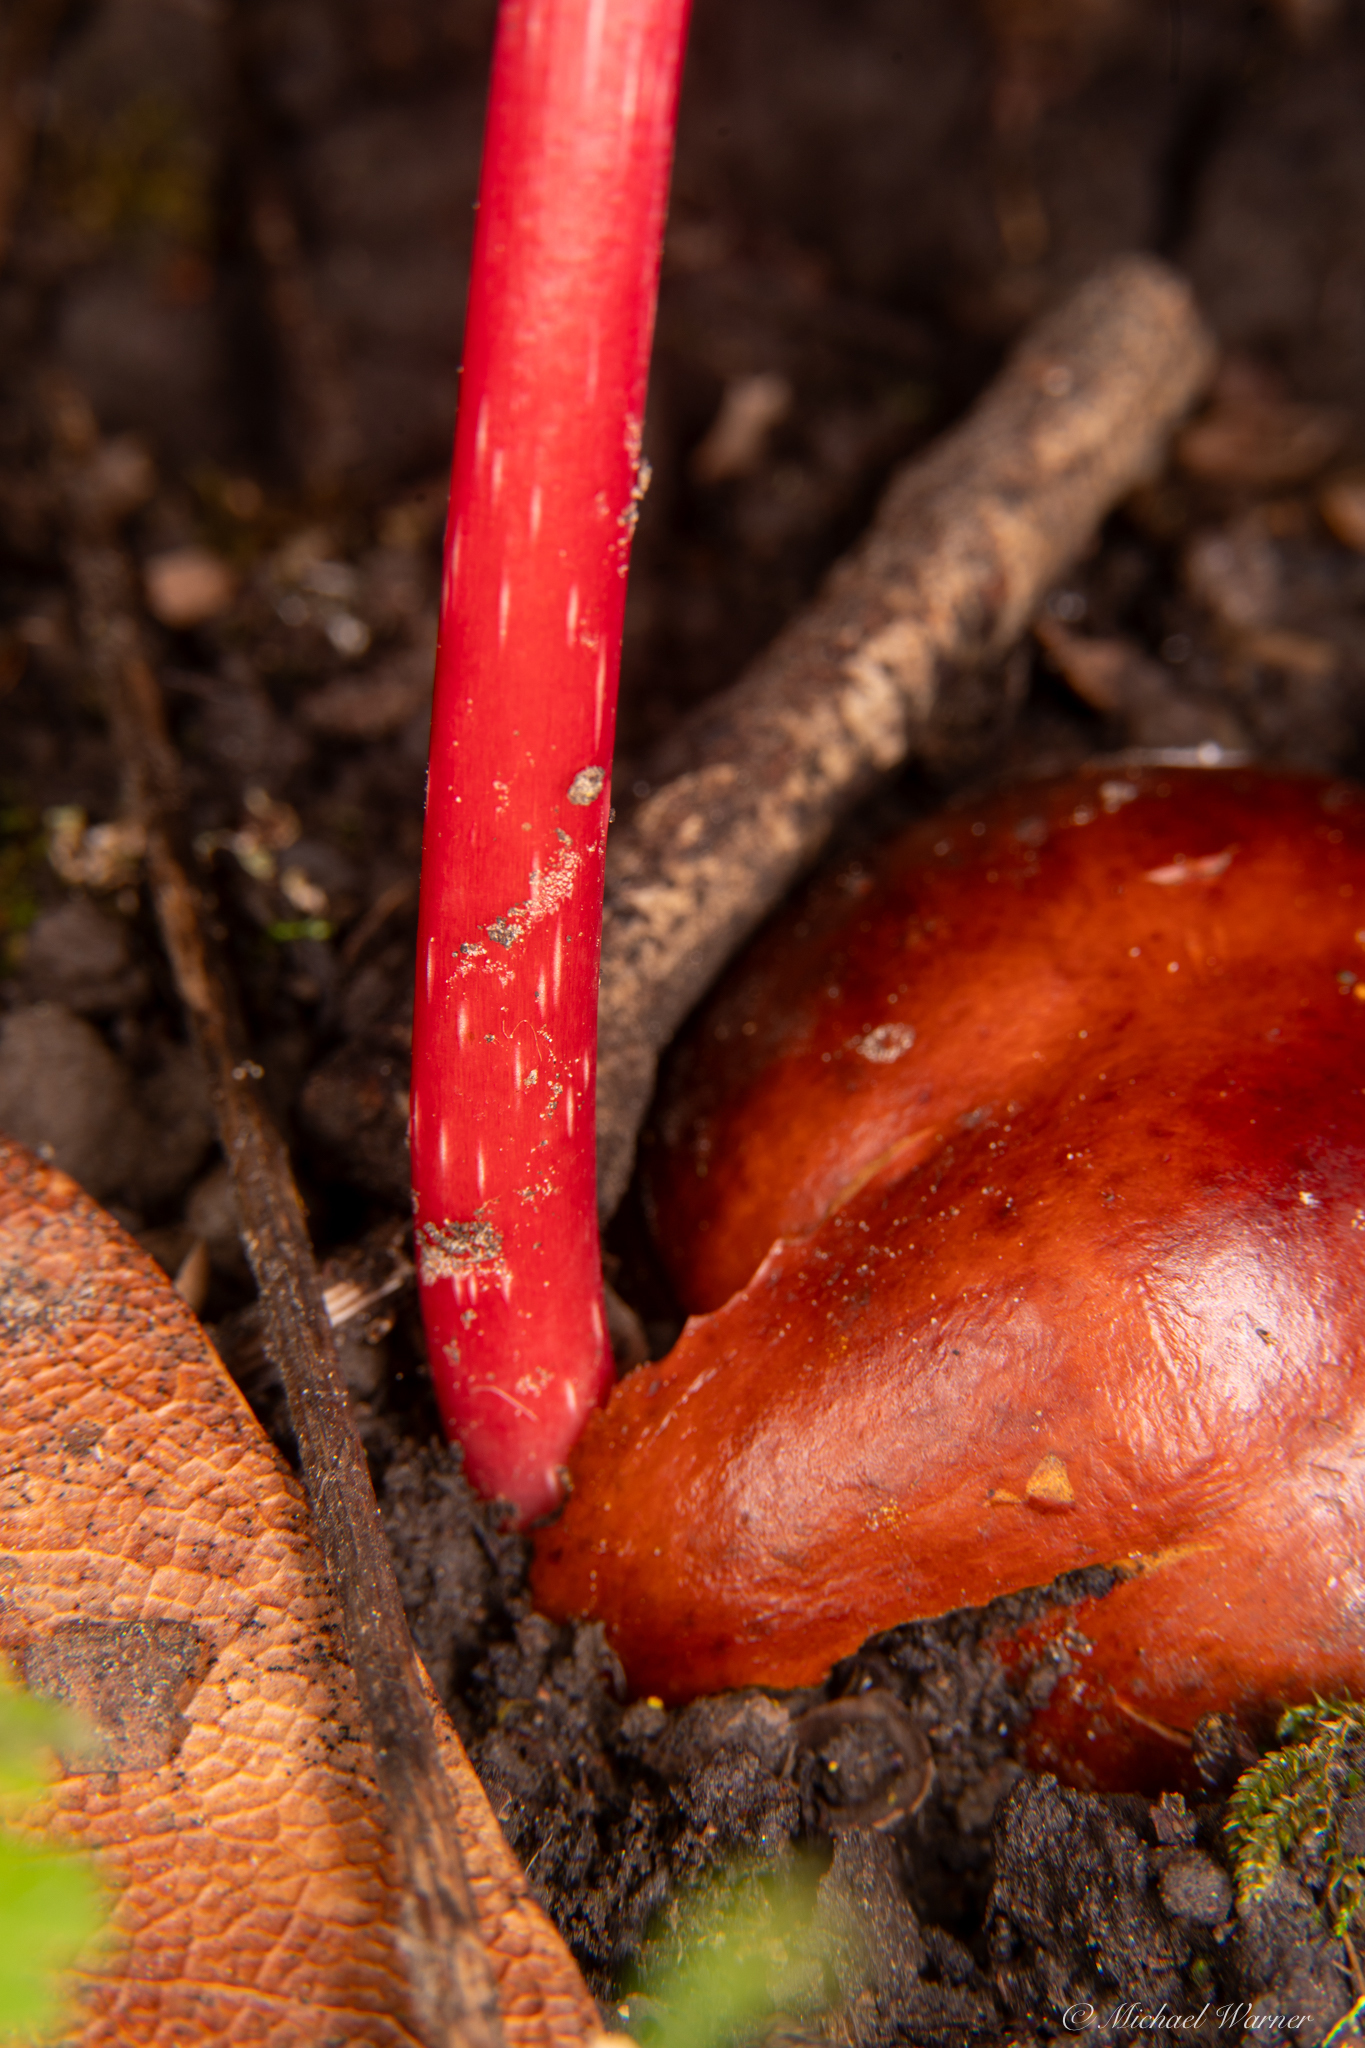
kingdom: Plantae
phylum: Tracheophyta
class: Magnoliopsida
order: Sapindales
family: Sapindaceae
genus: Aesculus
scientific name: Aesculus californica
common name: California buckeye
